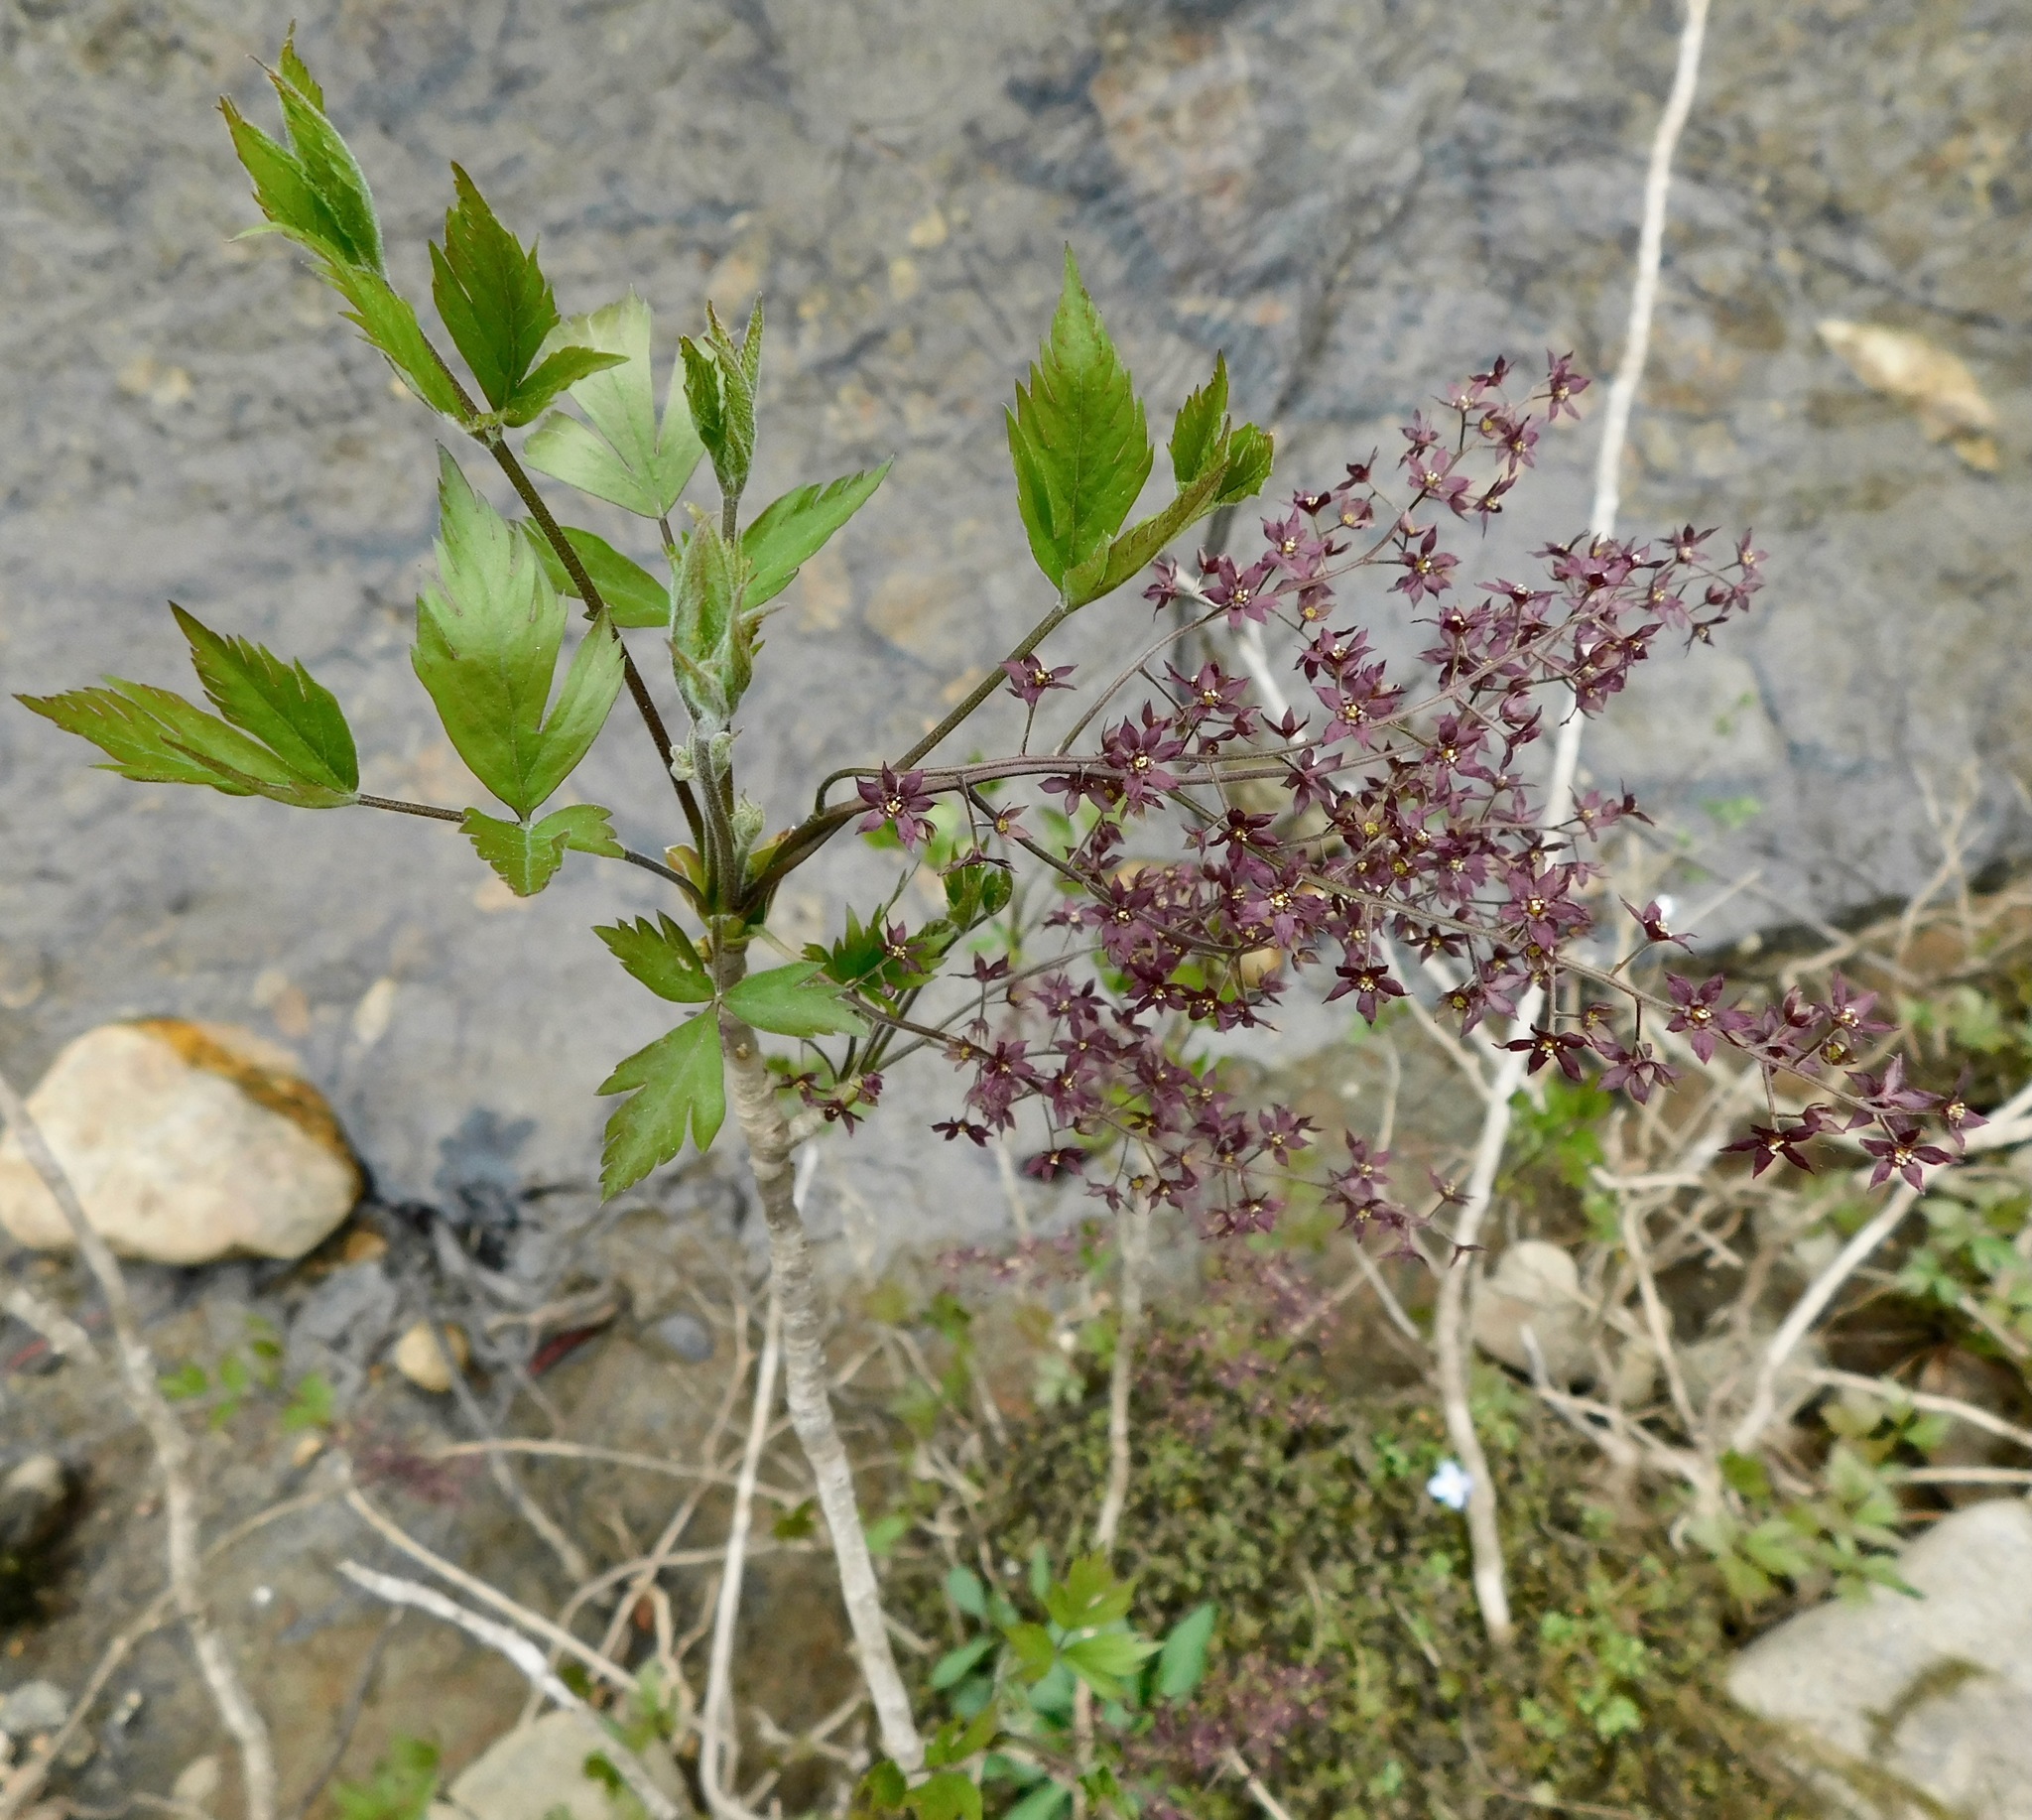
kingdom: Plantae
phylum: Tracheophyta
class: Magnoliopsida
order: Ranunculales
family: Ranunculaceae
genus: Xanthorhiza
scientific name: Xanthorhiza simplicissima
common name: Yellowroot
